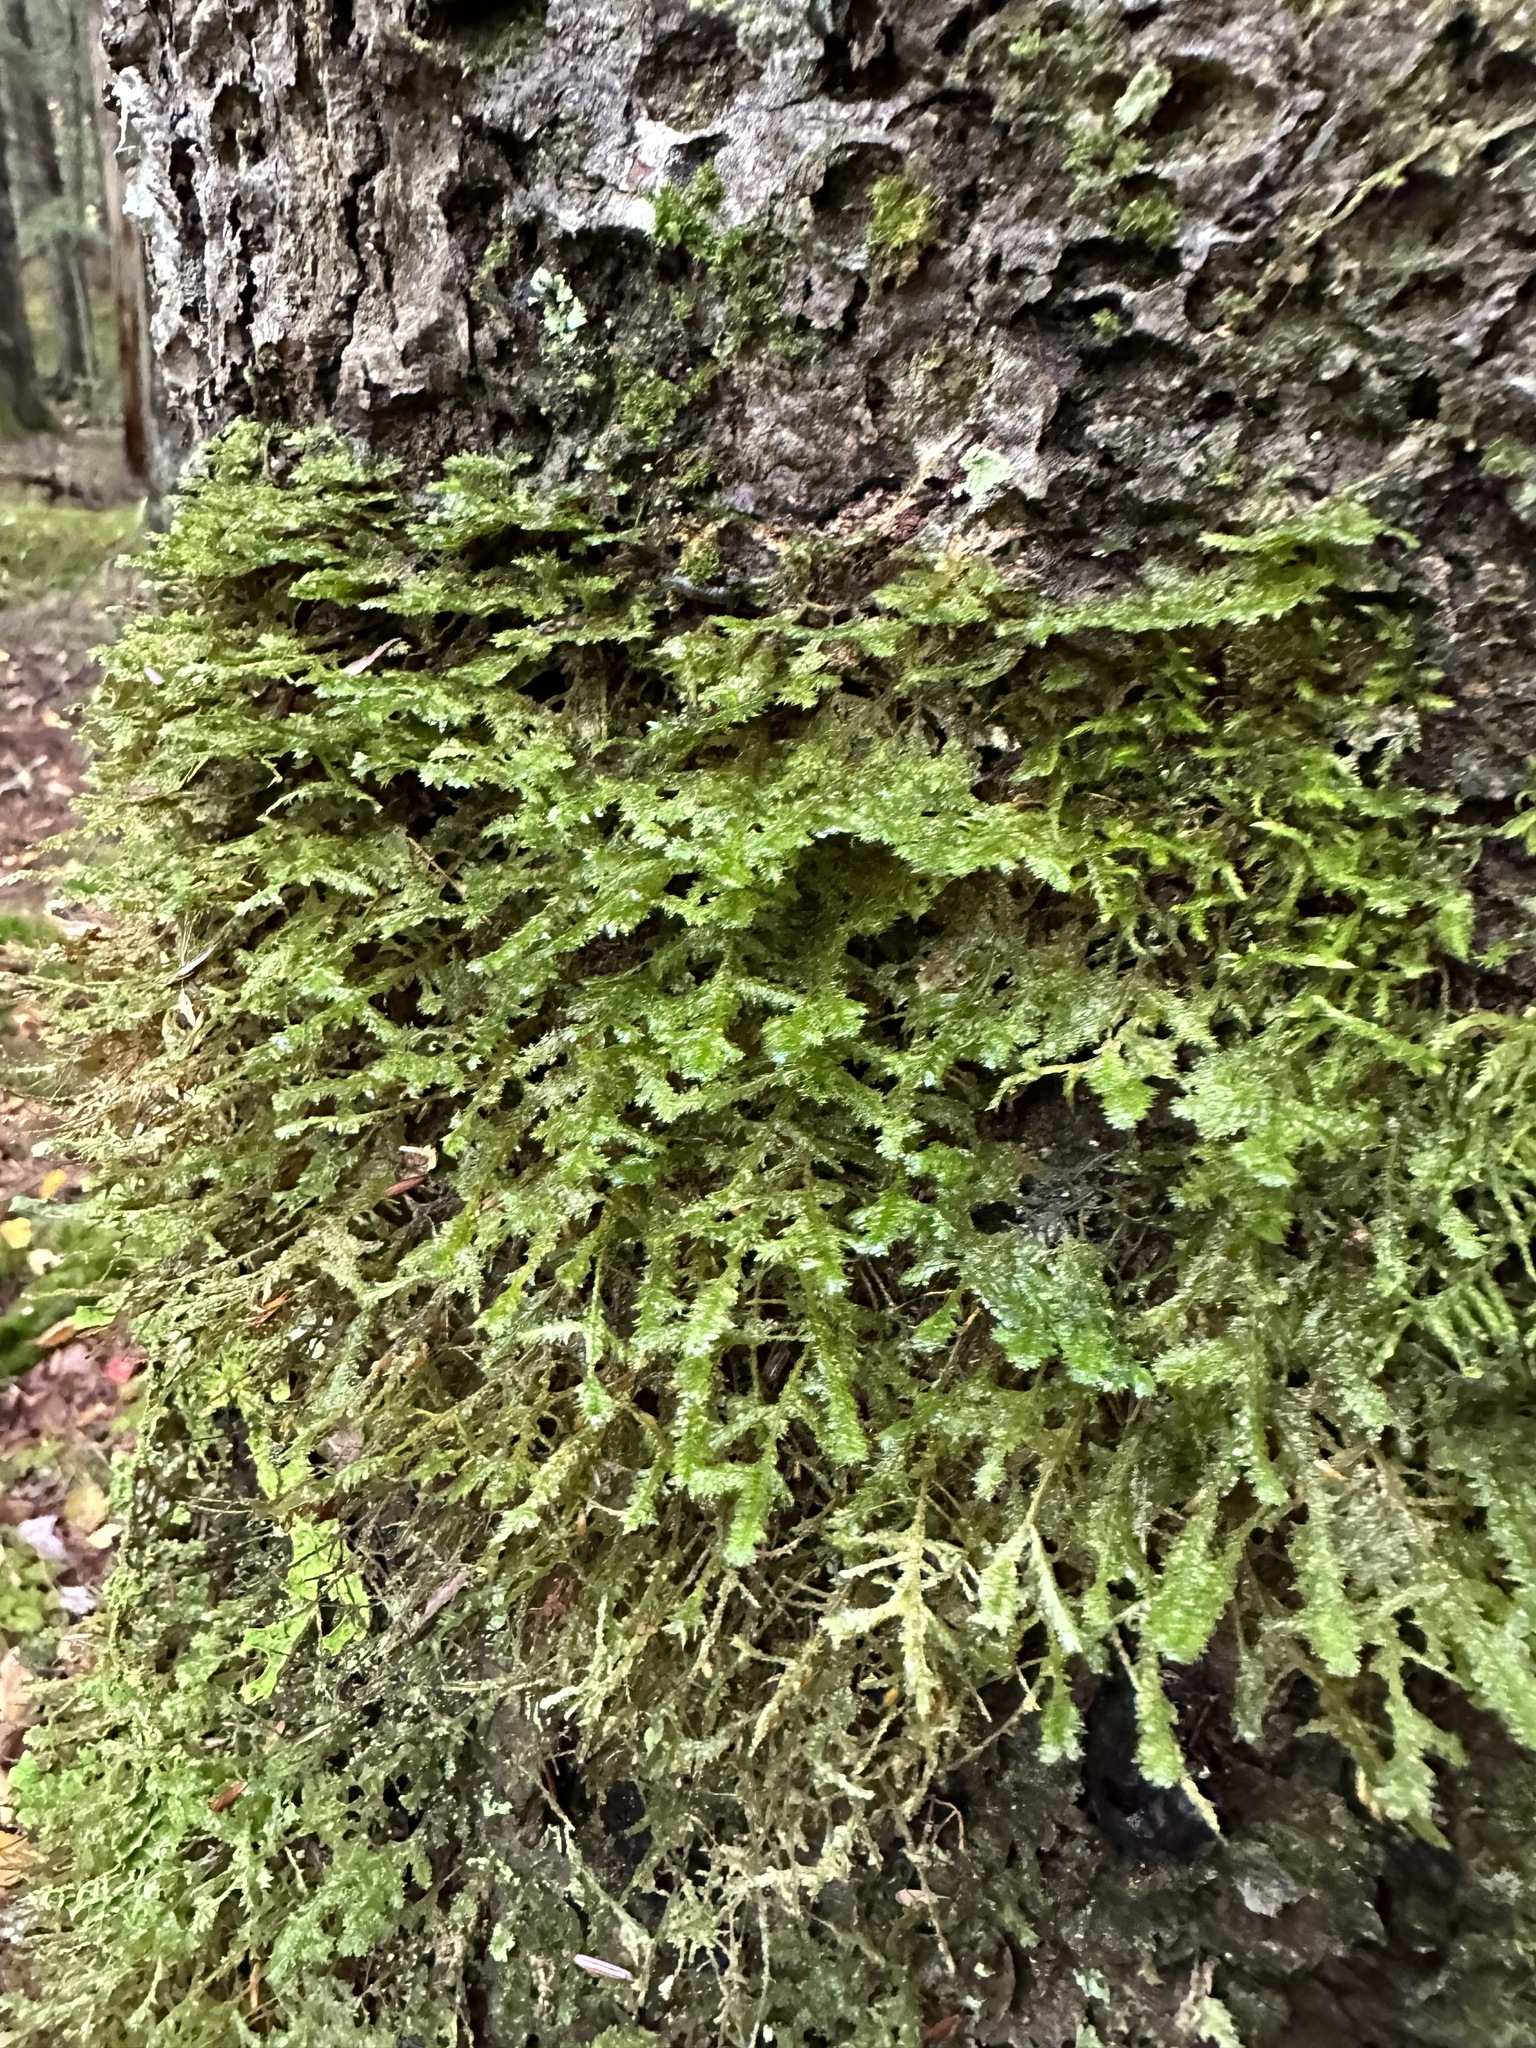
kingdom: Plantae
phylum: Bryophyta
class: Bryopsida
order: Hypnales
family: Neckeraceae
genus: Neckera
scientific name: Neckera pennata
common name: Feathery neckera
